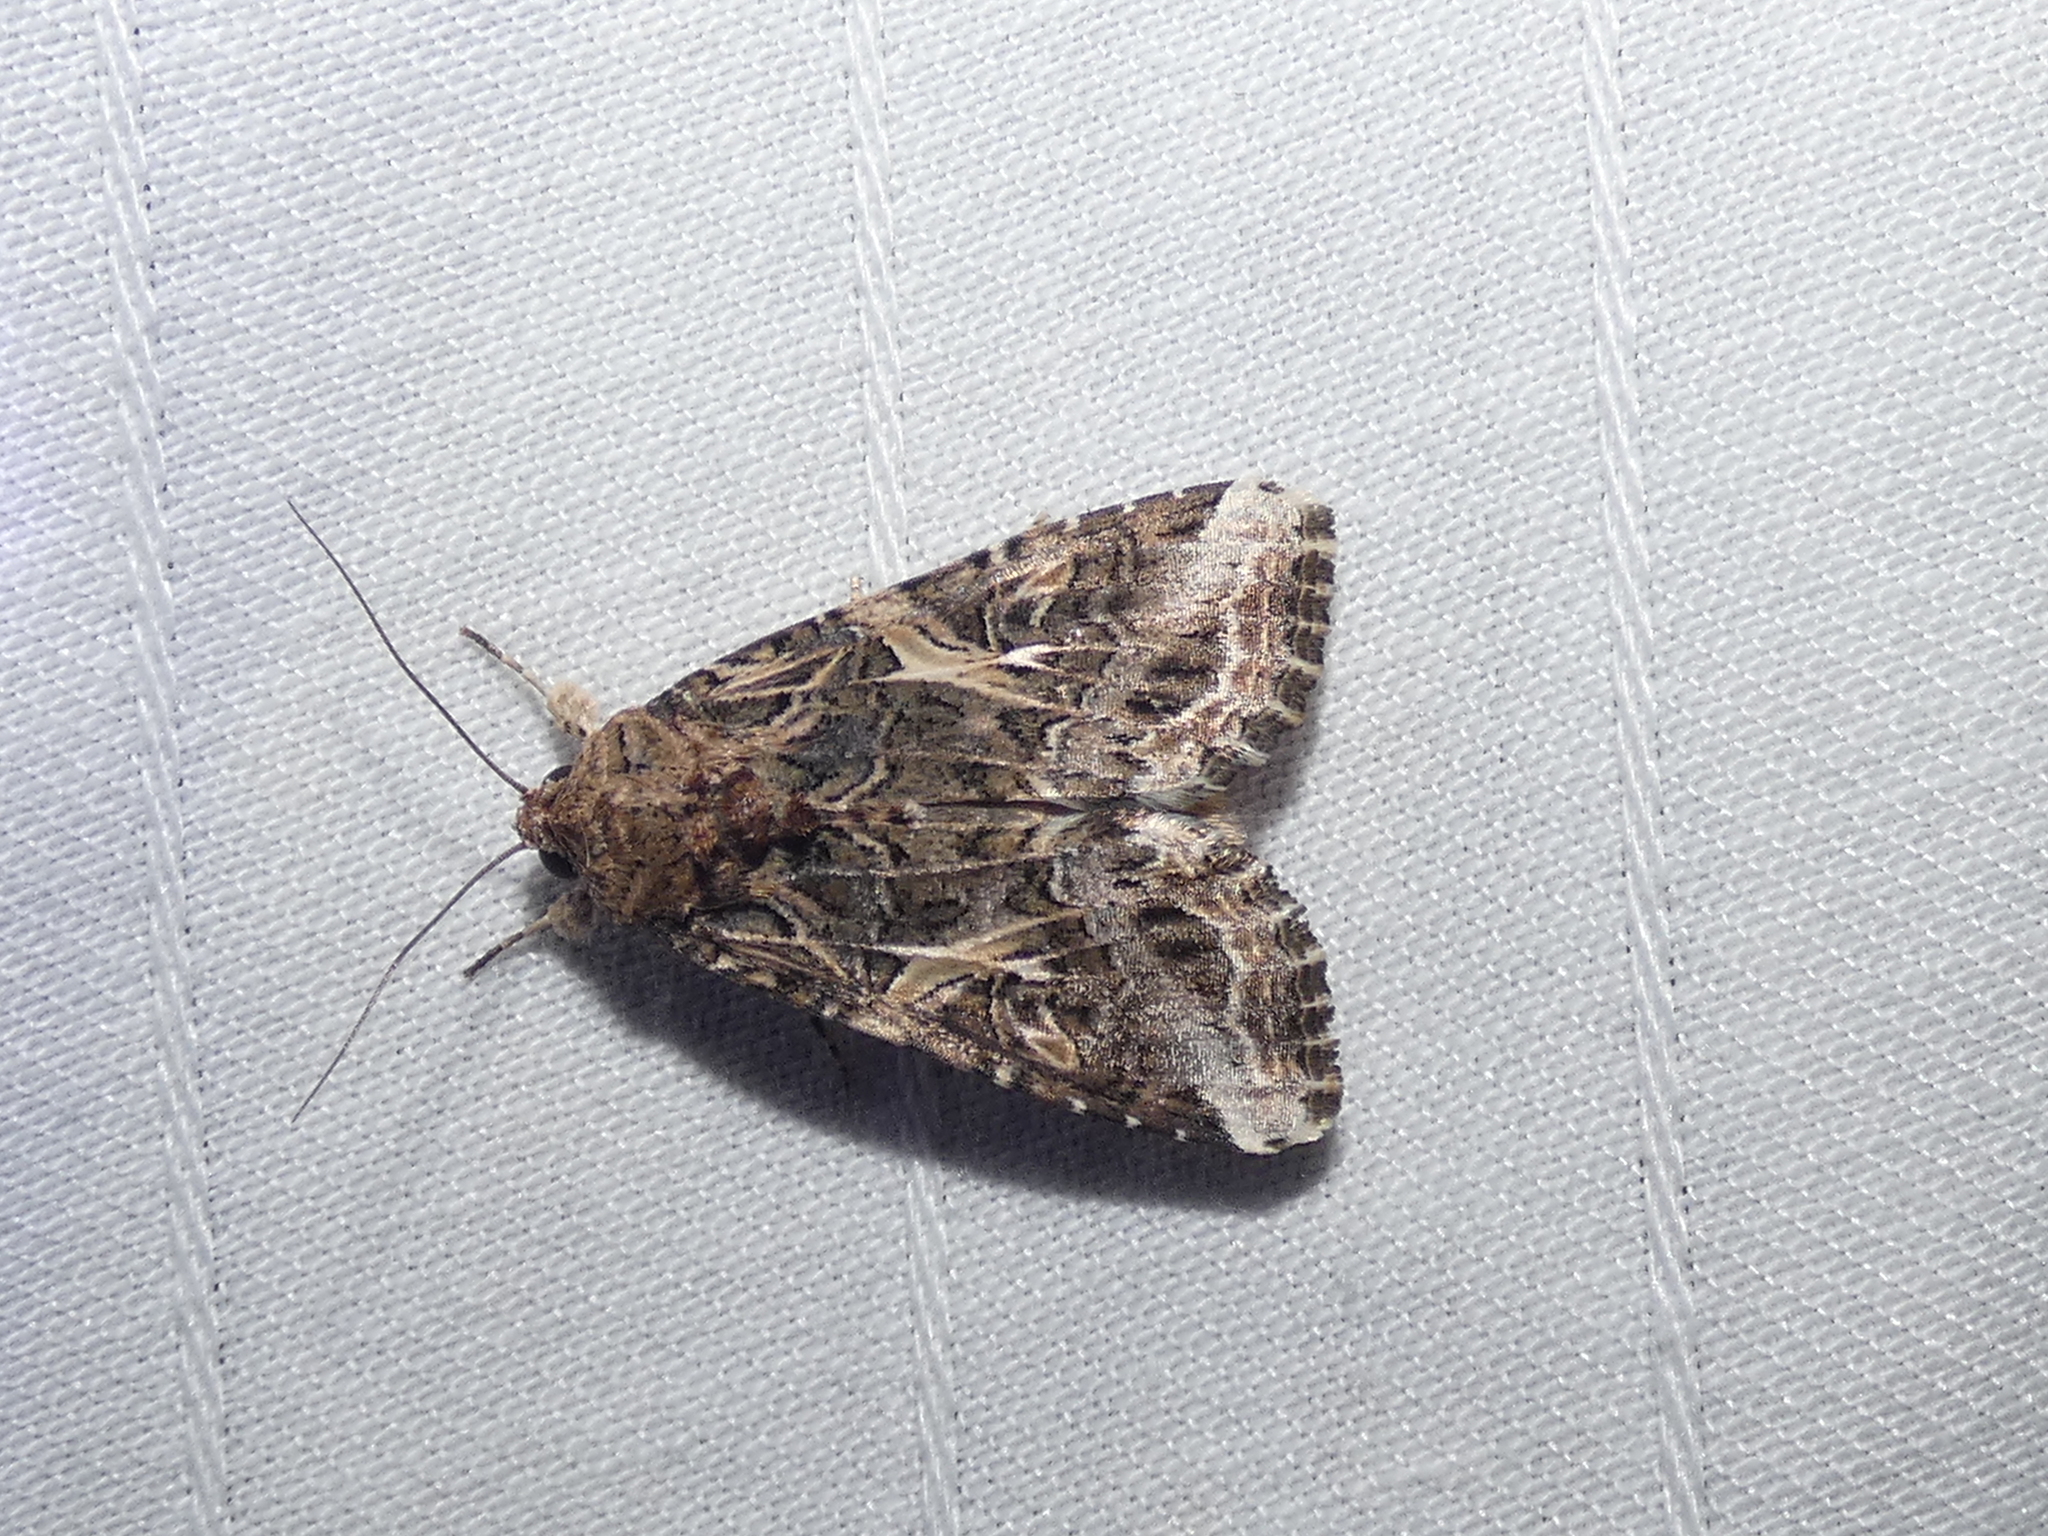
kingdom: Animalia
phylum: Arthropoda
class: Insecta
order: Lepidoptera
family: Noctuidae
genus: Spodoptera
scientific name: Spodoptera ornithogalli
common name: Yellow-striped armyworm
